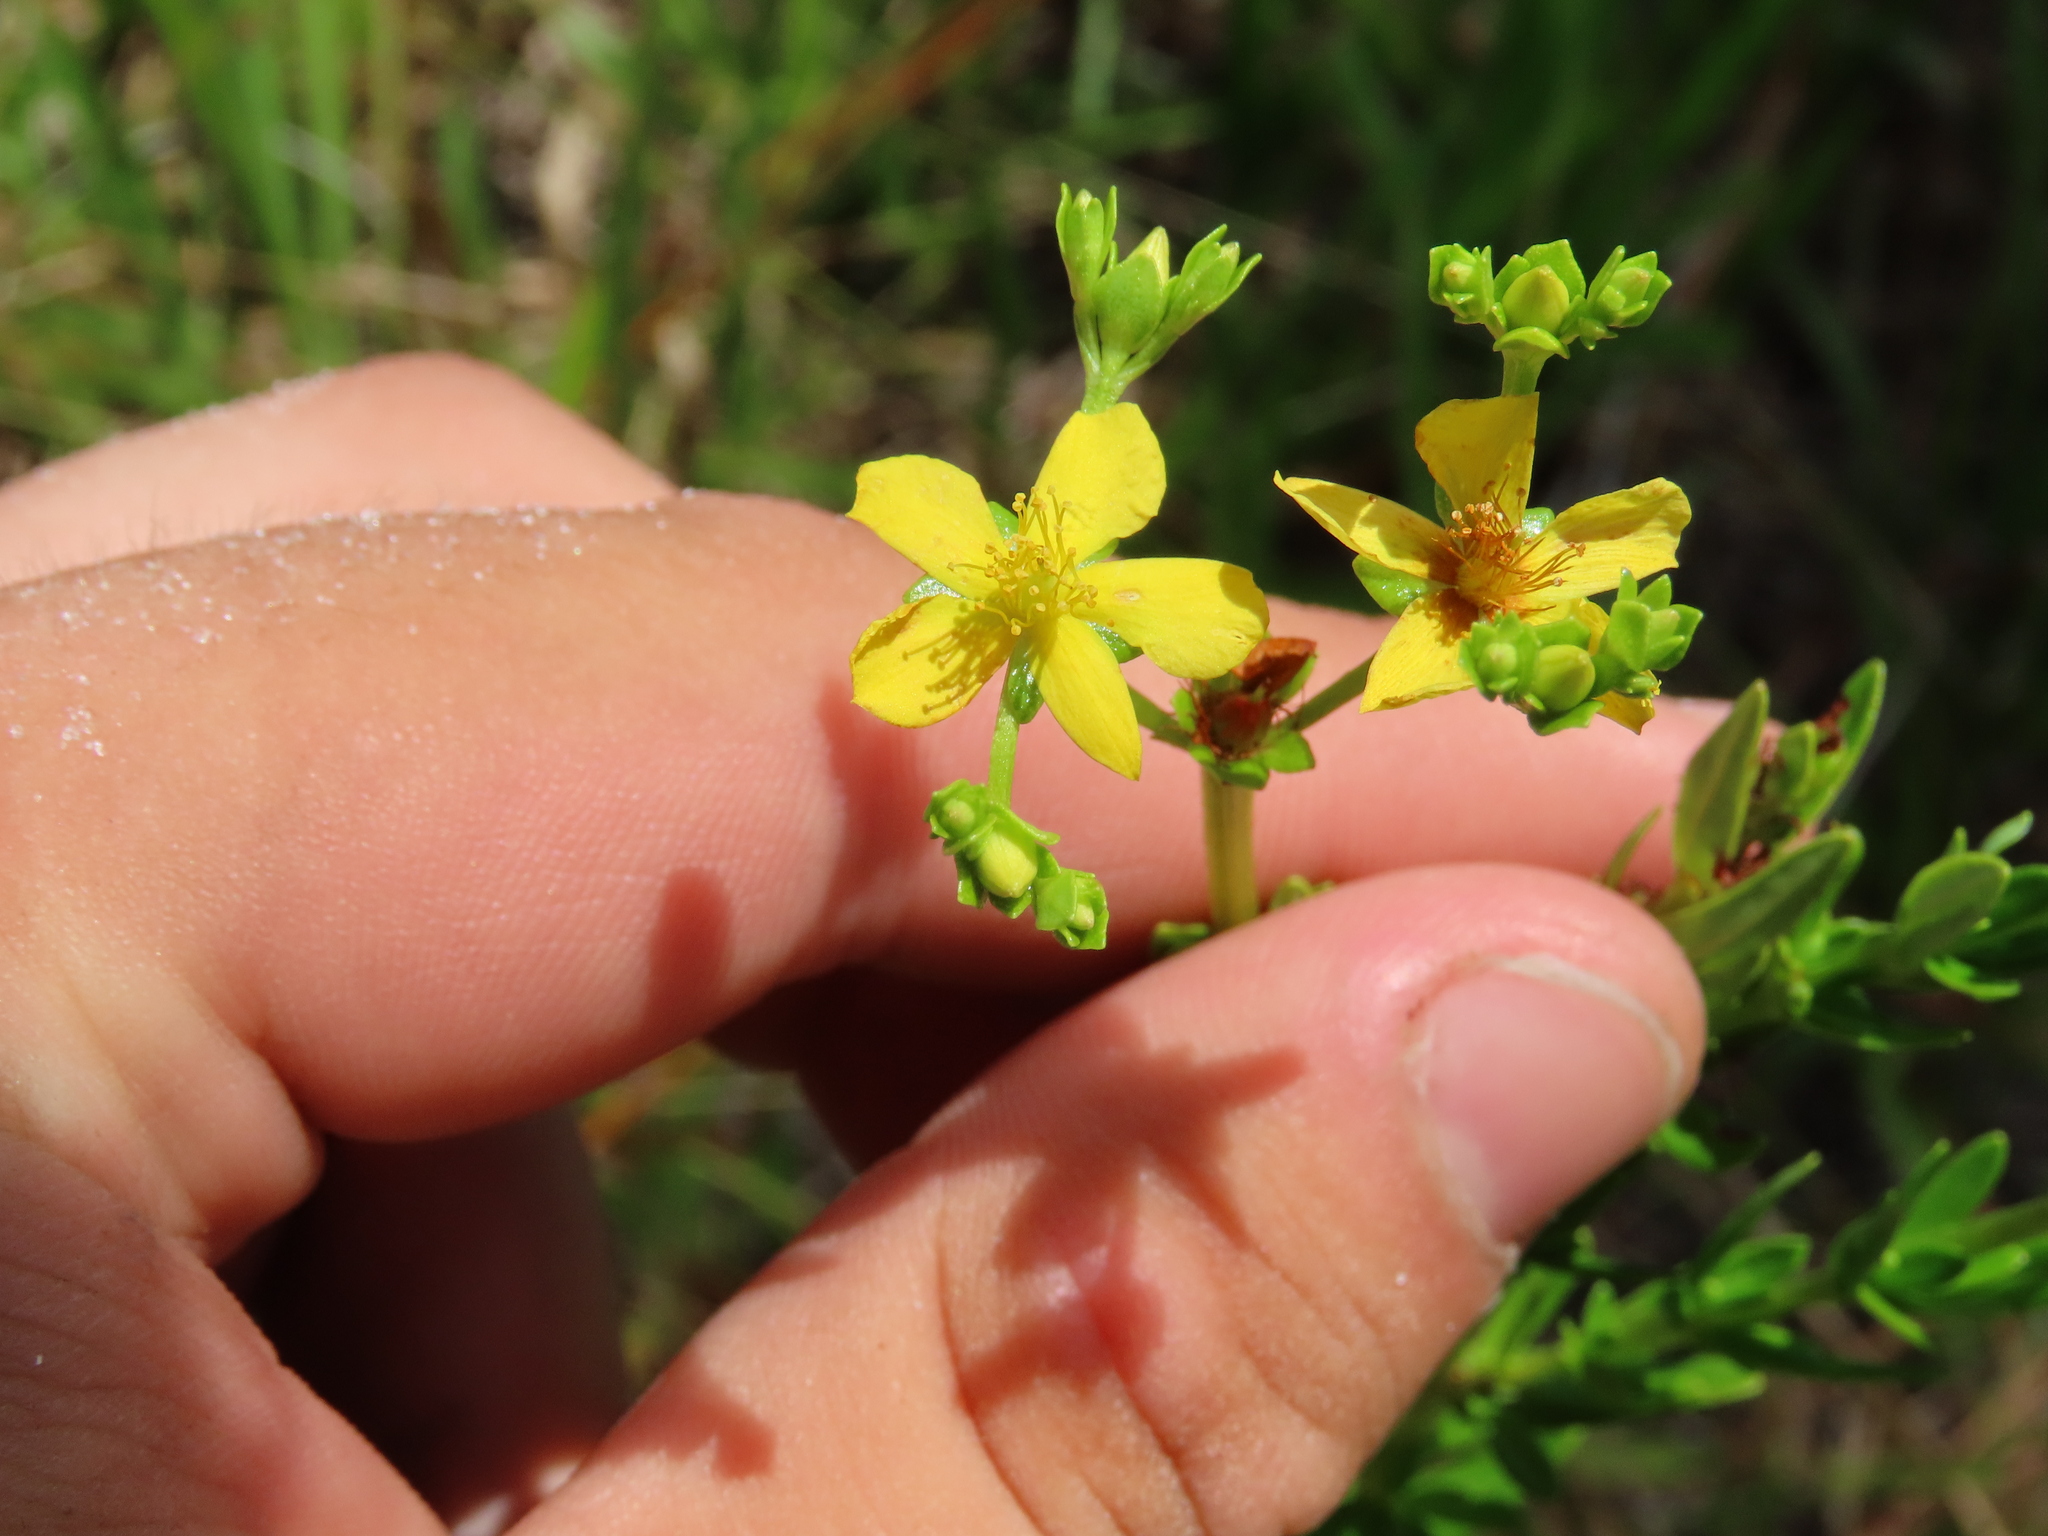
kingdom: Plantae
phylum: Tracheophyta
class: Magnoliopsida
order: Malpighiales
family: Hypericaceae
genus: Hypericum
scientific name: Hypericum cistifolium
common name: Round-pod st. john's-wort
